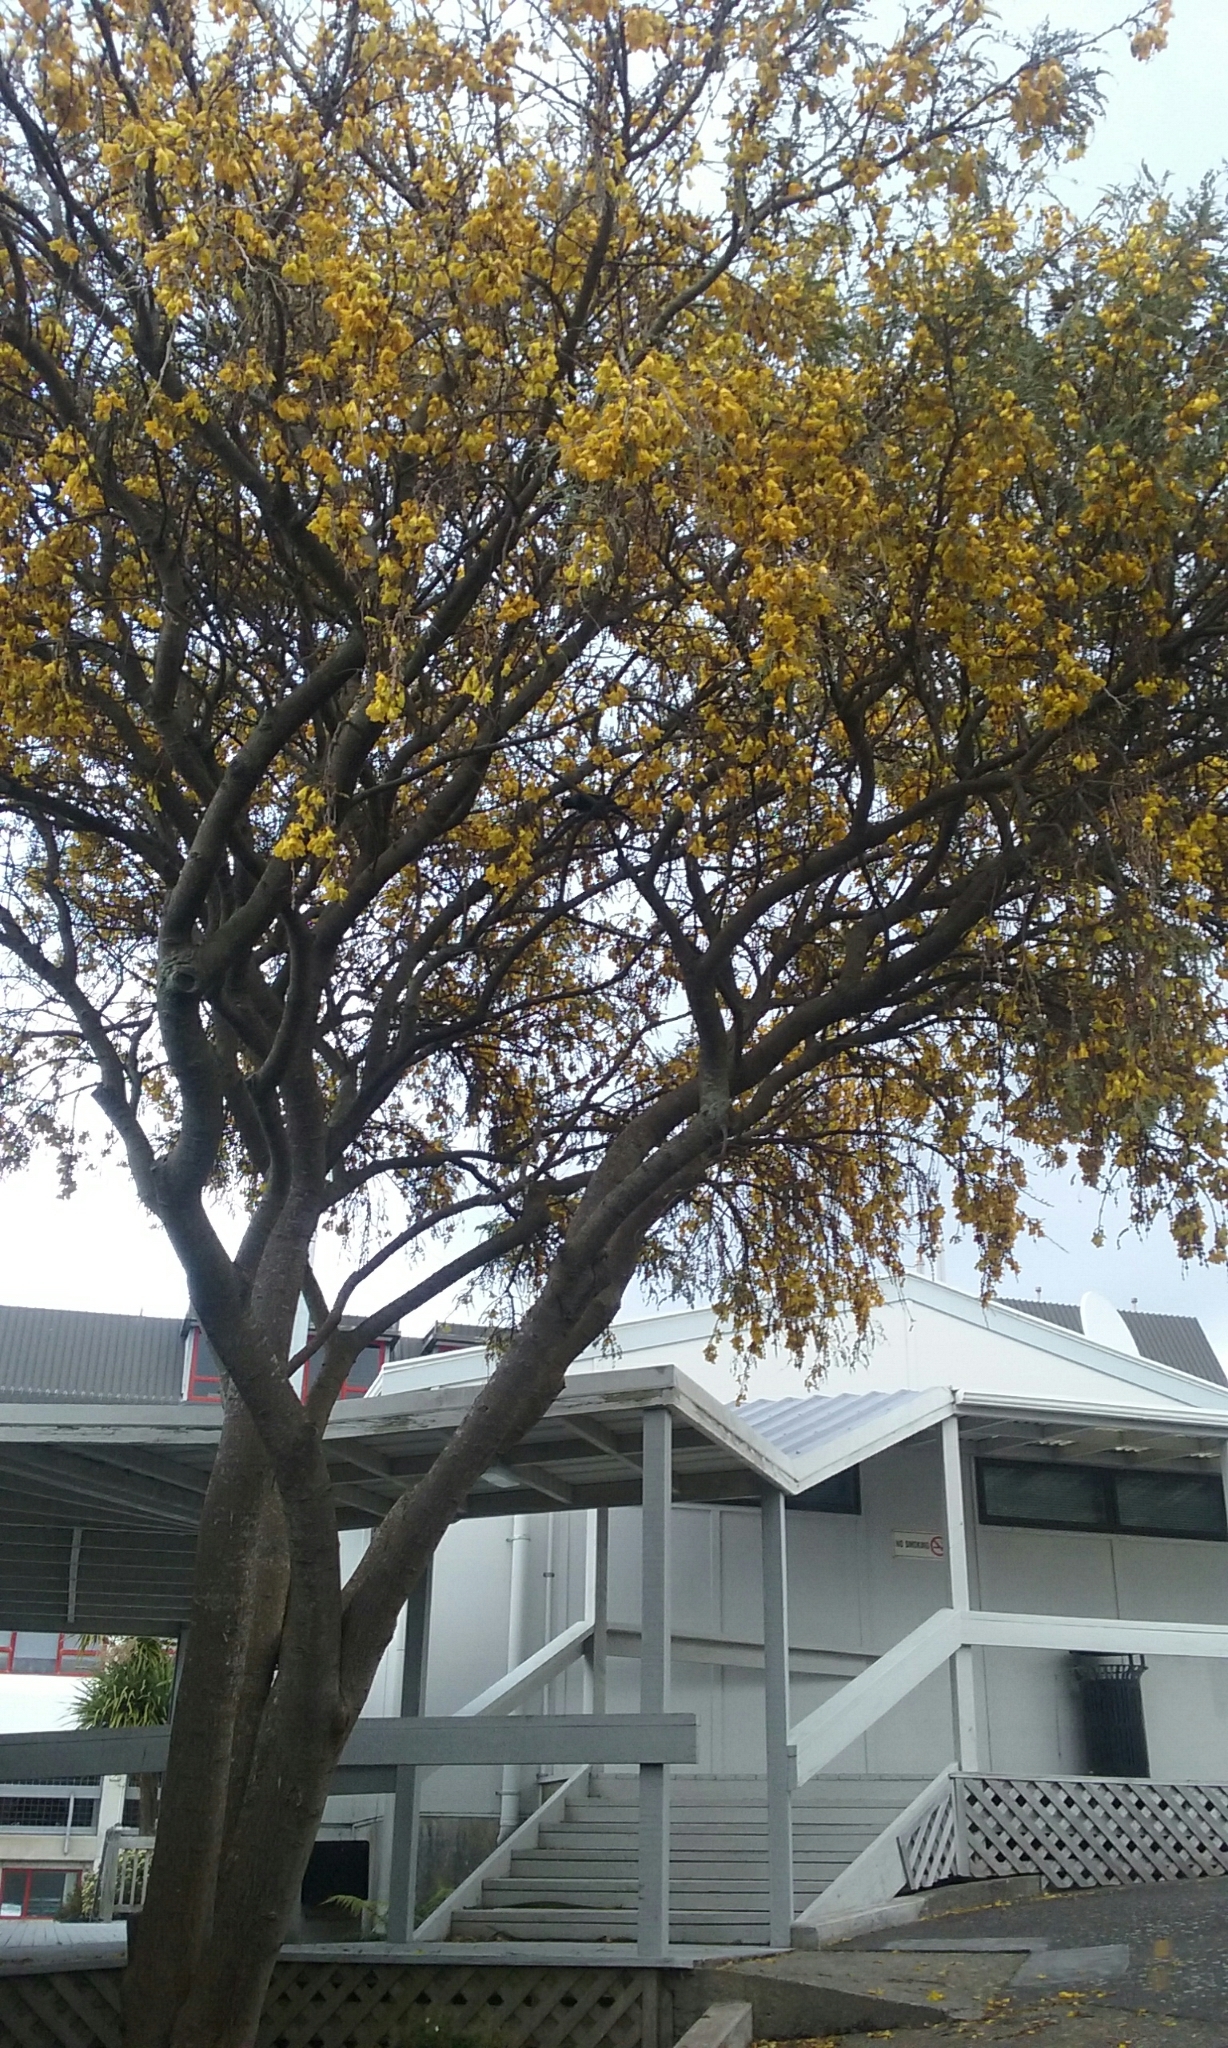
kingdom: Animalia
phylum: Chordata
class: Aves
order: Passeriformes
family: Meliphagidae
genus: Prosthemadera
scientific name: Prosthemadera novaeseelandiae
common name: Tui
